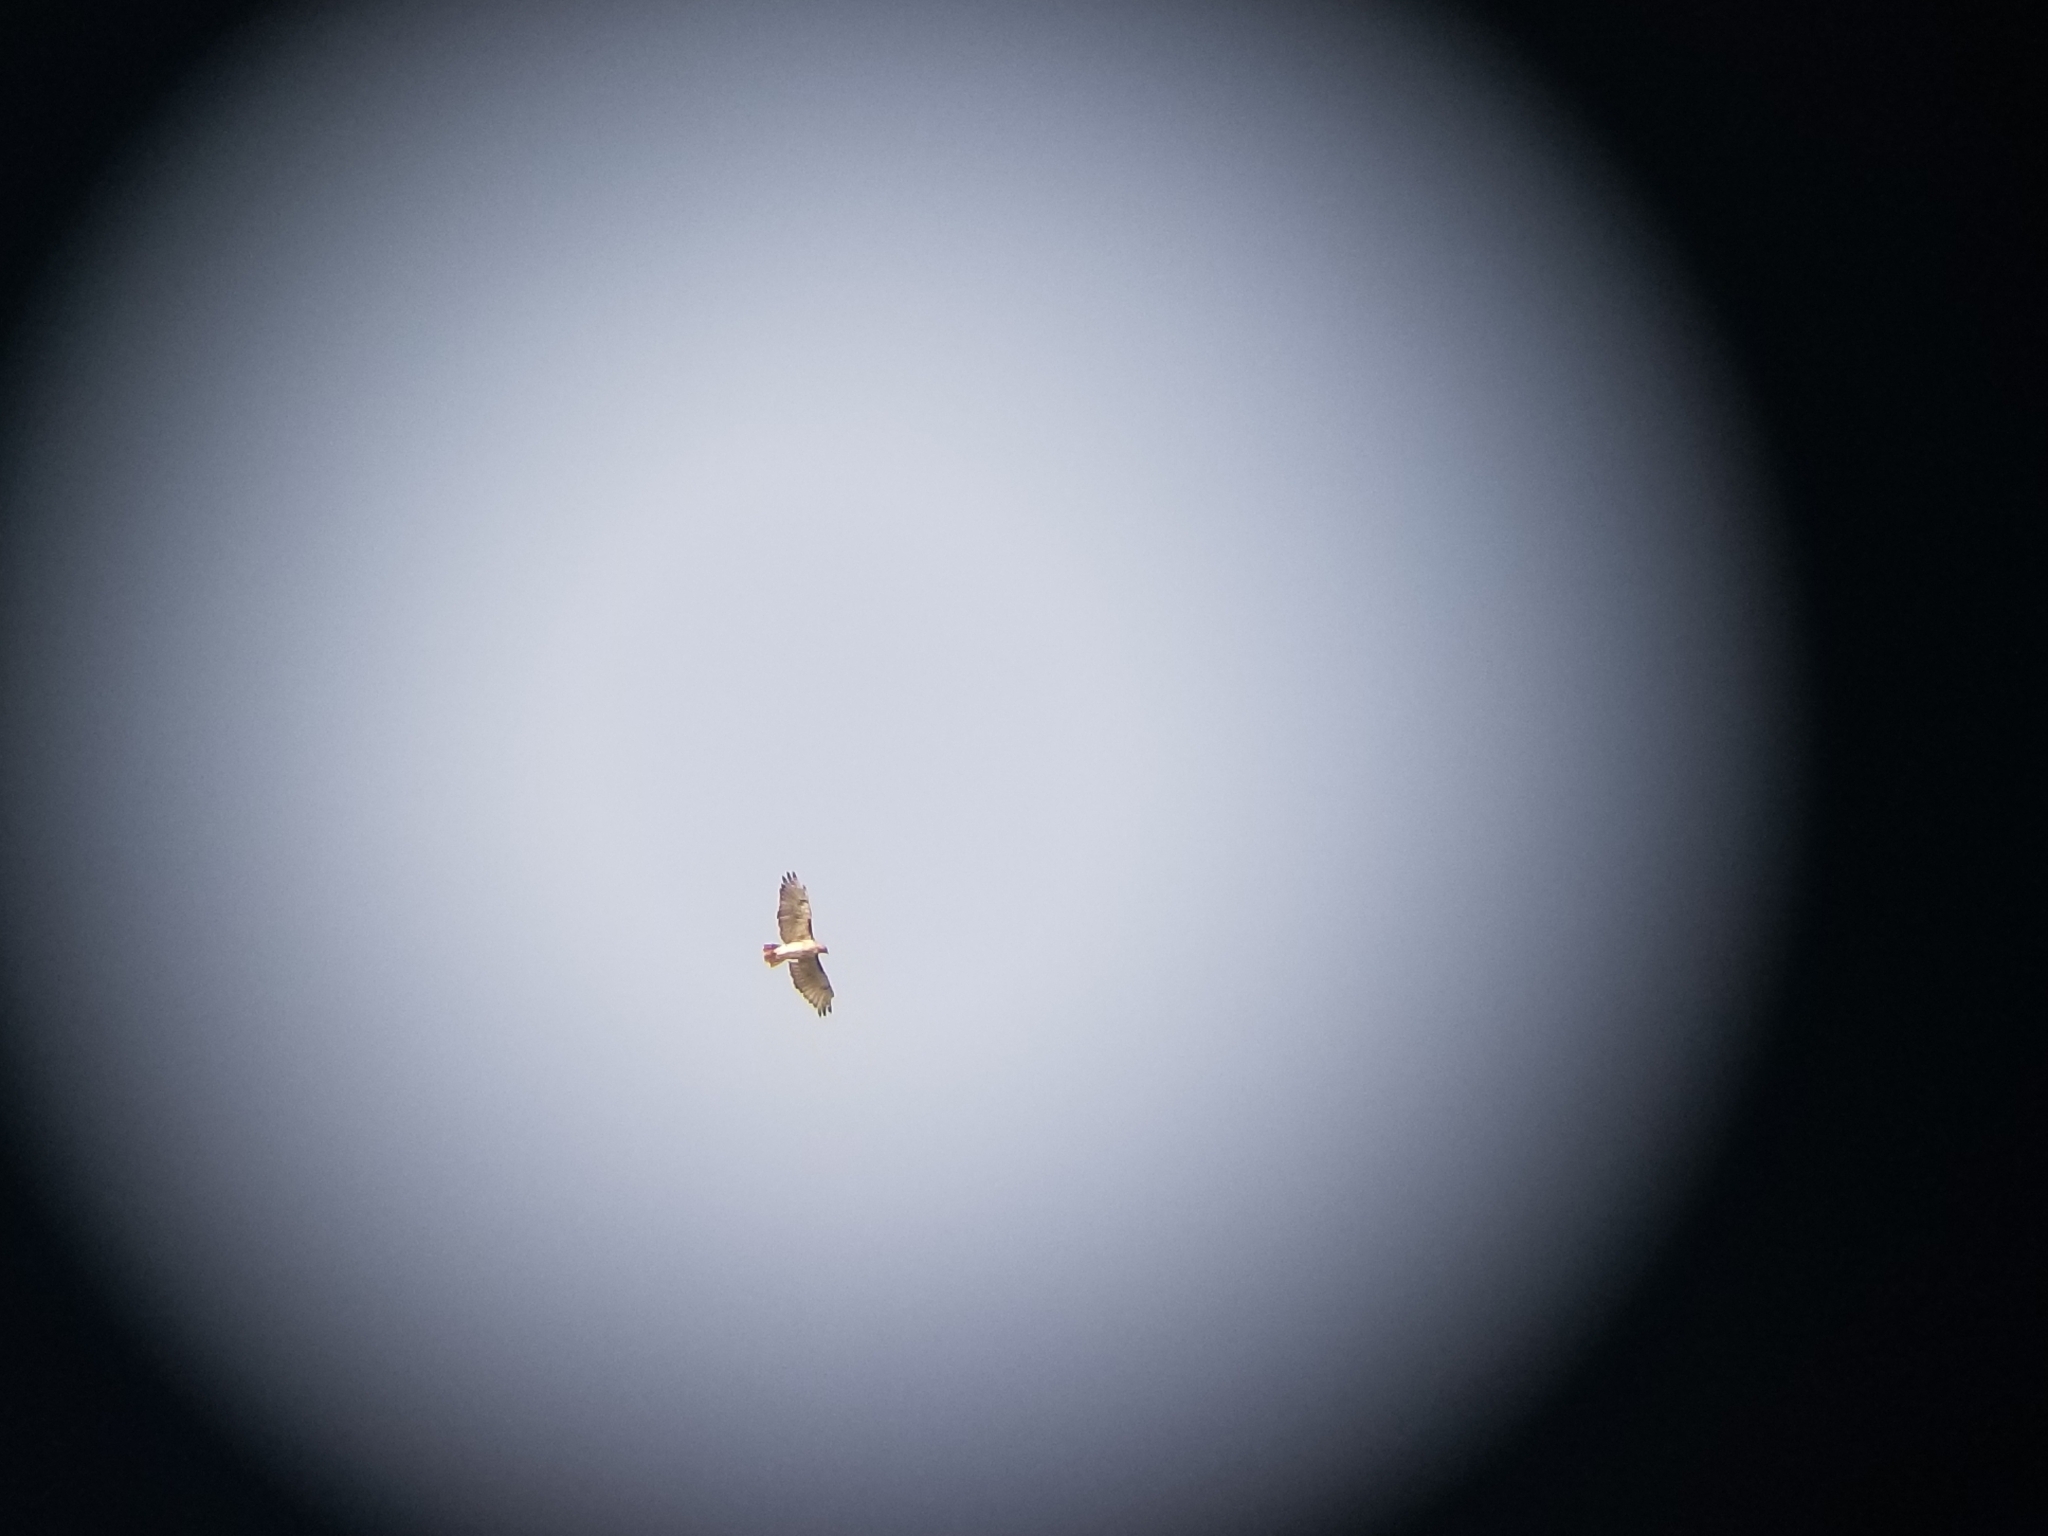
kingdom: Animalia
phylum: Chordata
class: Aves
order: Accipitriformes
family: Accipitridae
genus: Buteo
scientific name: Buteo jamaicensis
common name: Red-tailed hawk
